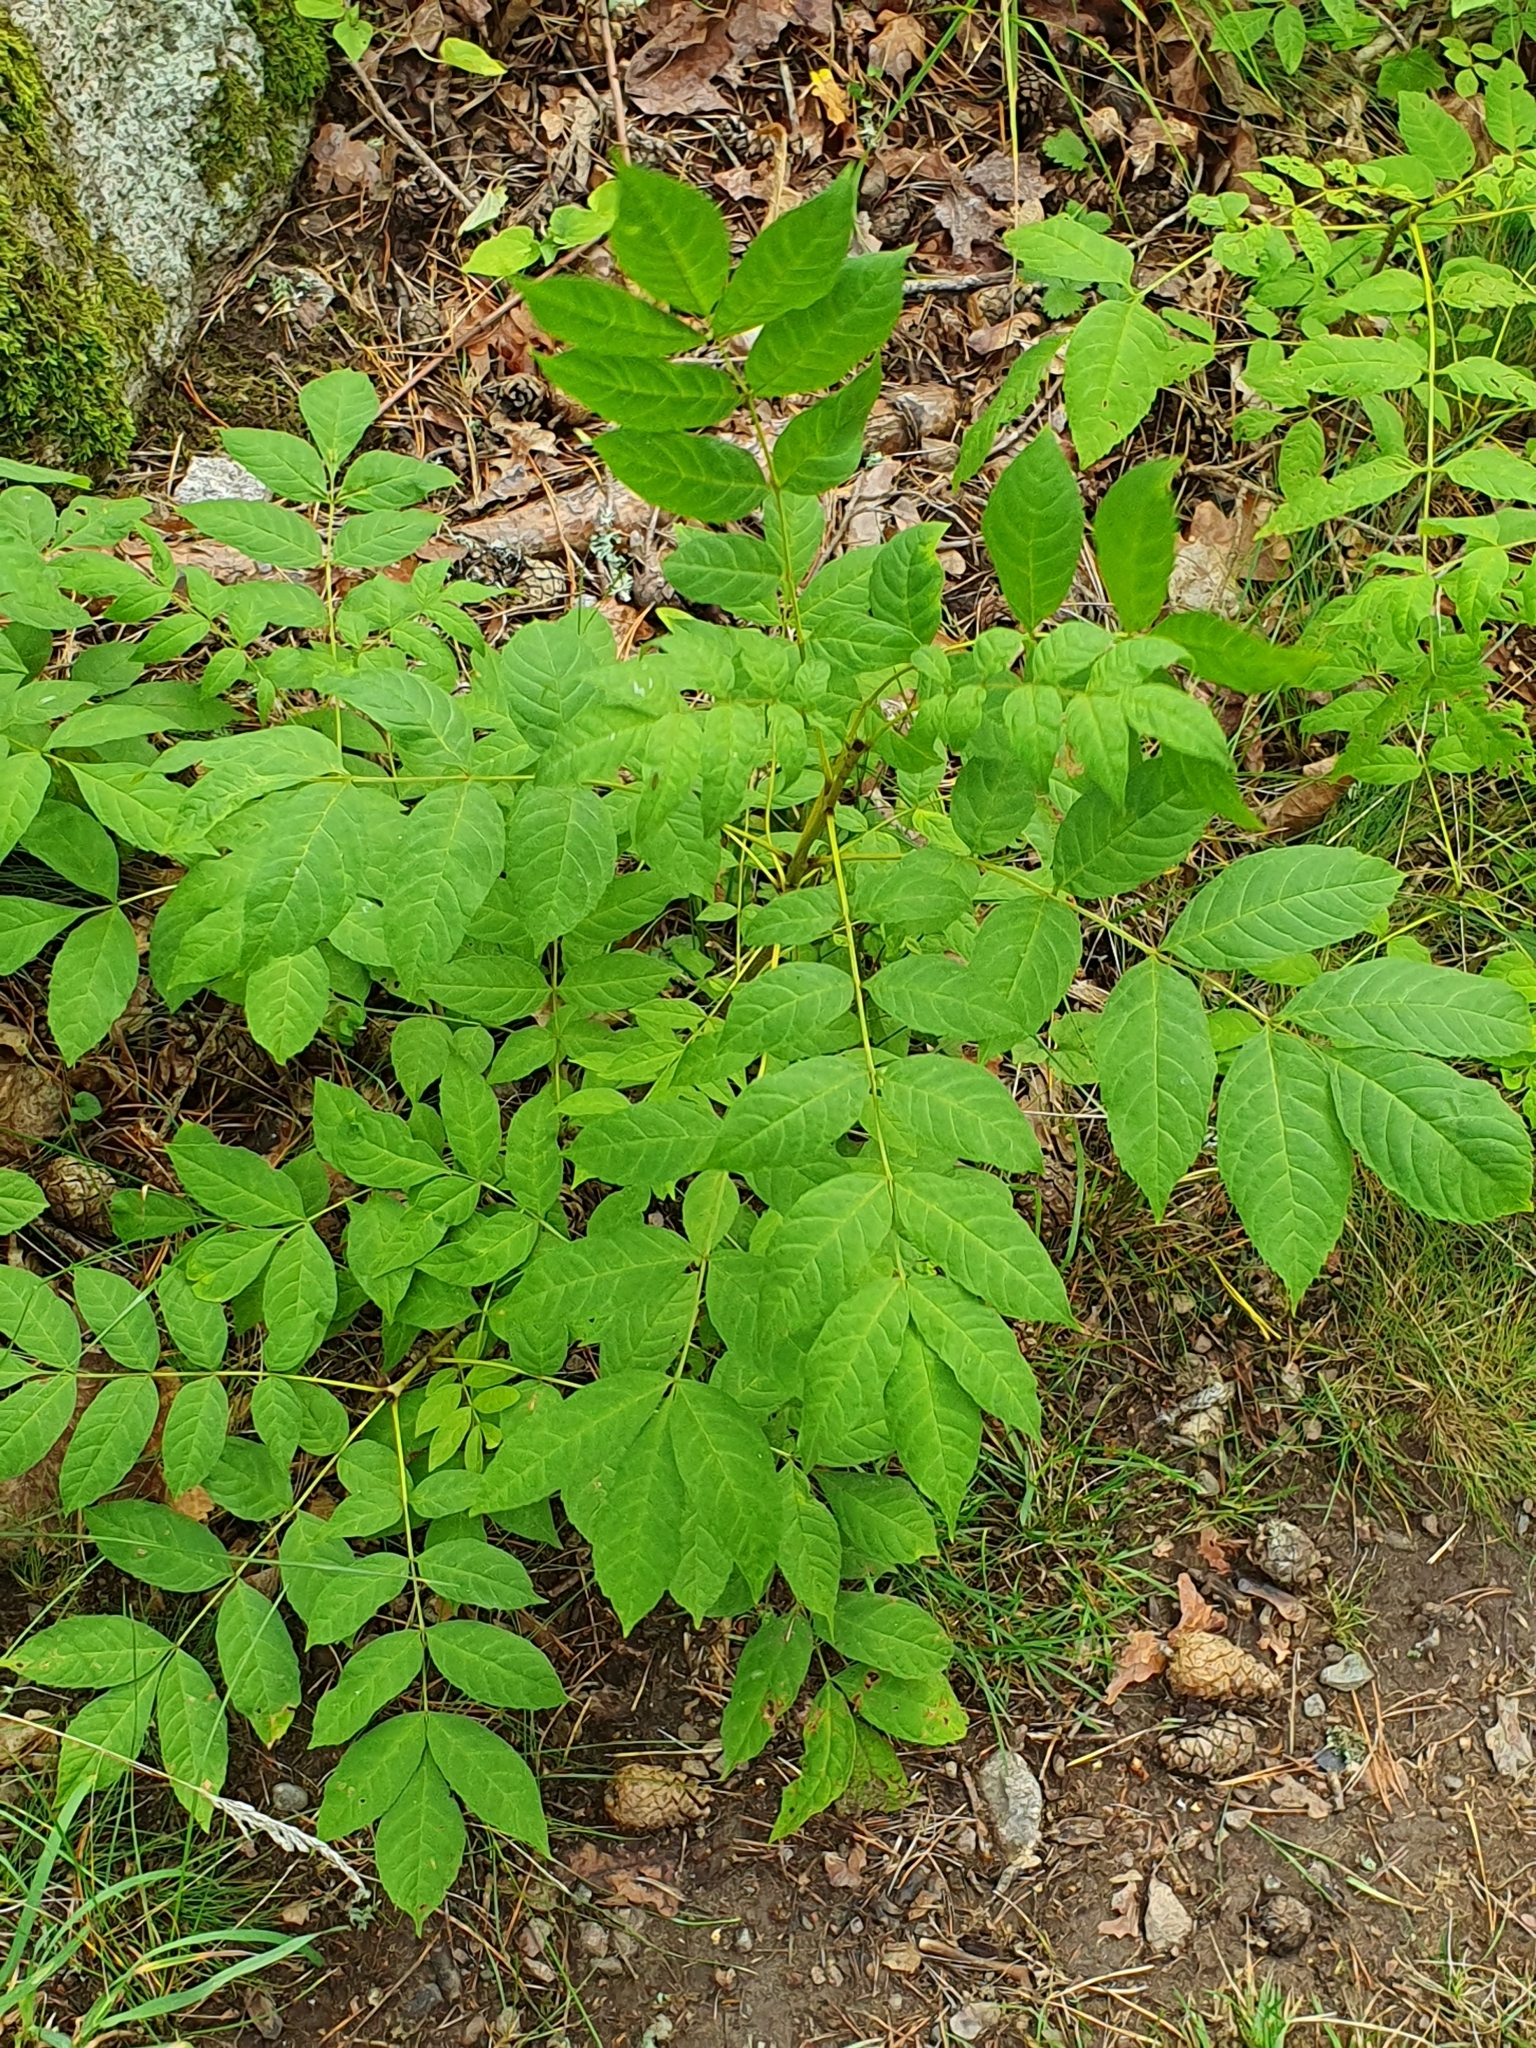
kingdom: Plantae
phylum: Tracheophyta
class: Magnoliopsida
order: Lamiales
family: Oleaceae
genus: Fraxinus
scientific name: Fraxinus excelsior
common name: European ash
